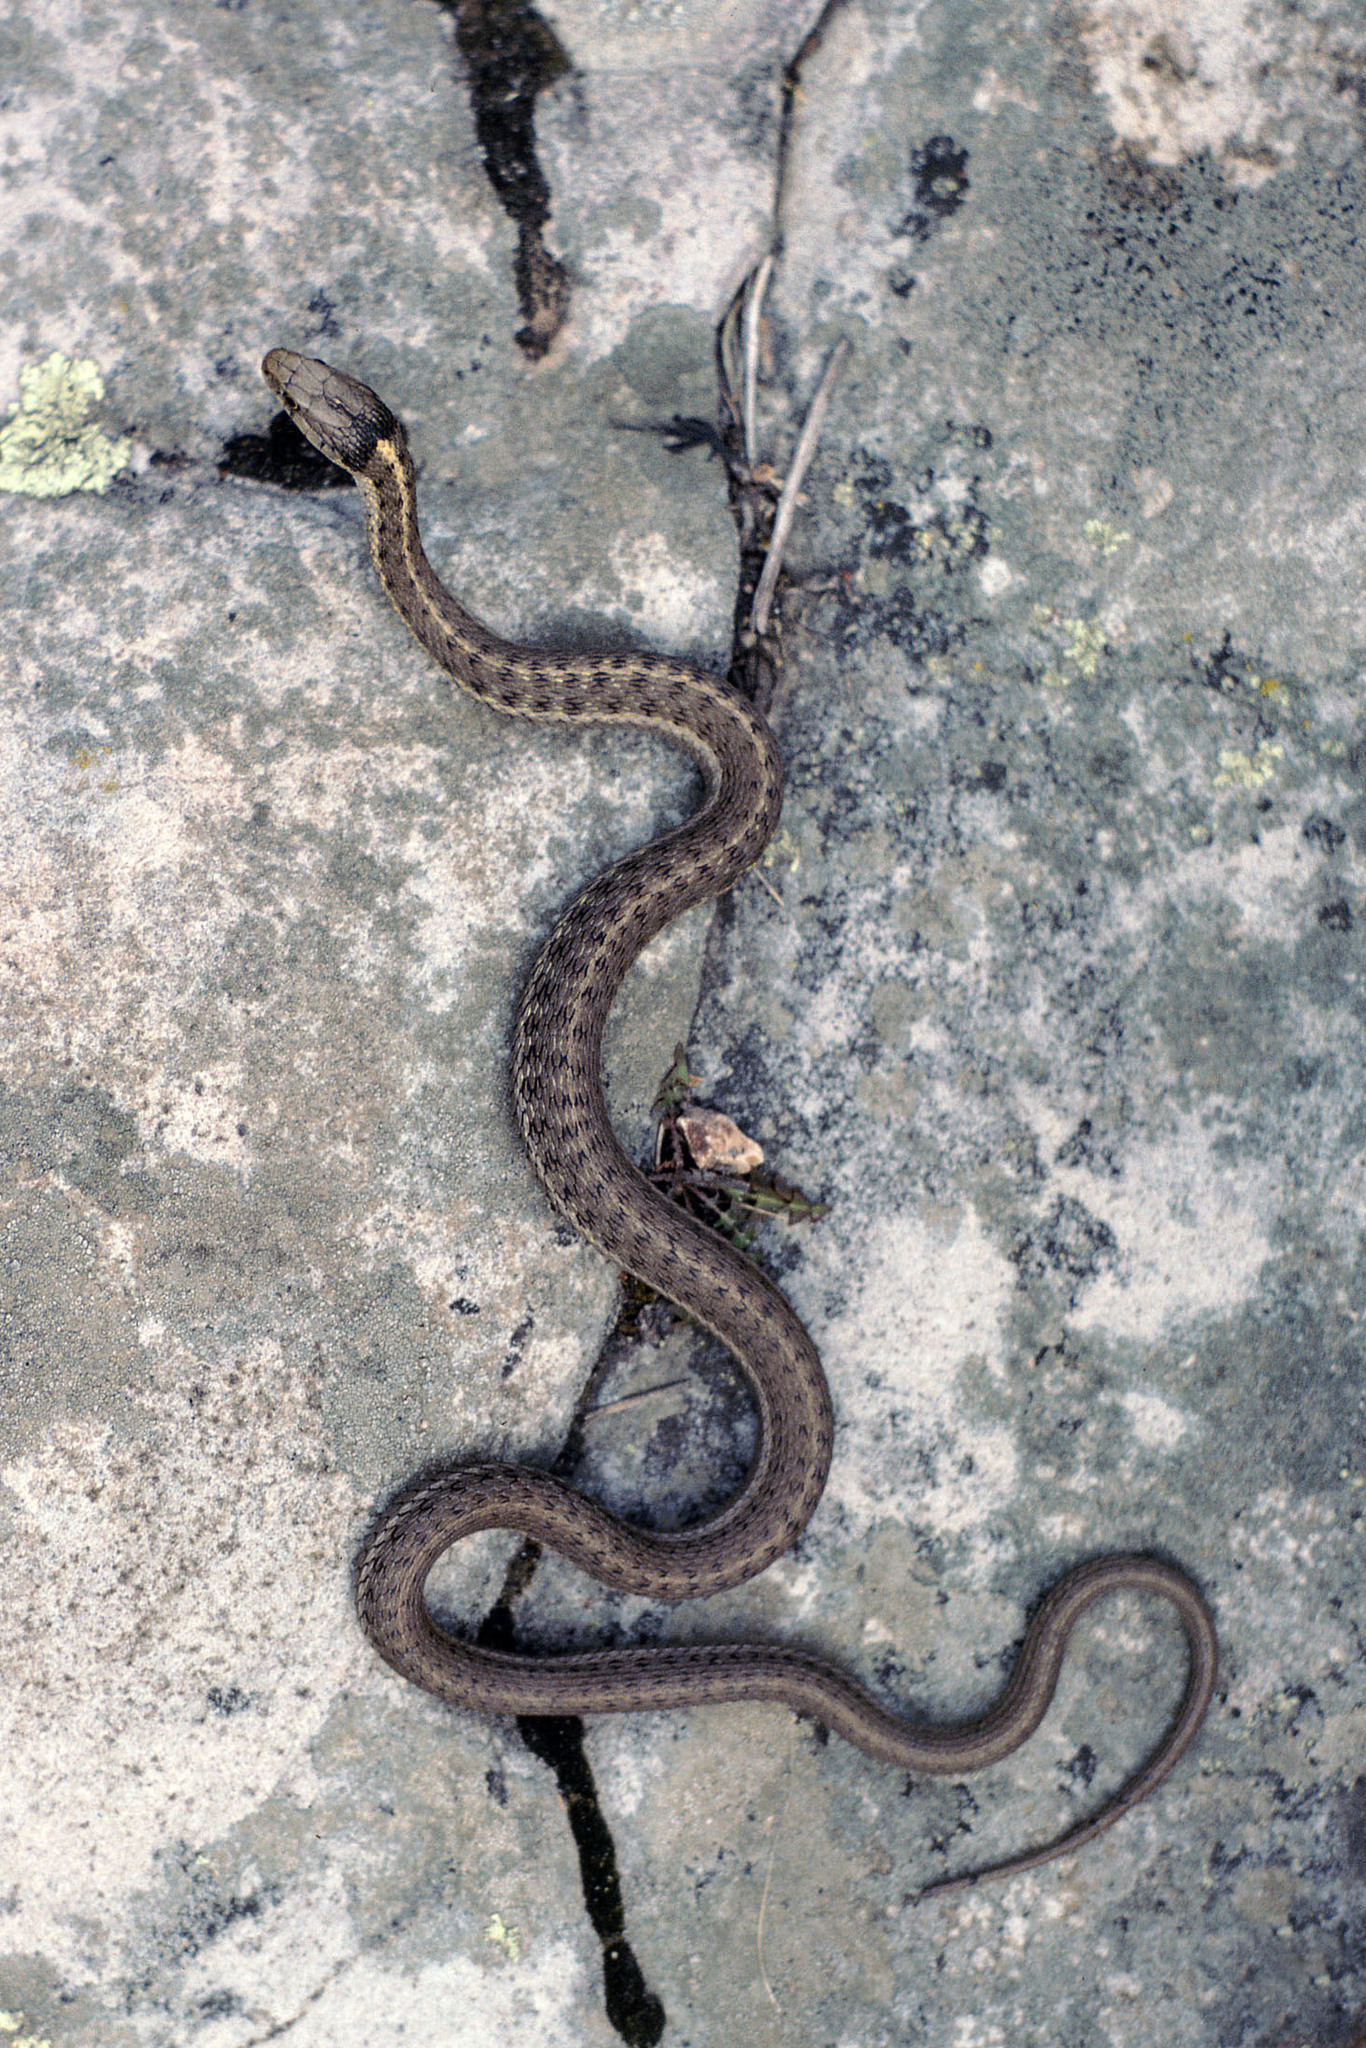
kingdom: Animalia
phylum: Chordata
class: Squamata
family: Colubridae
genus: Thamnophis
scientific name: Thamnophis elegans
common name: Western terrestrial garter snake
